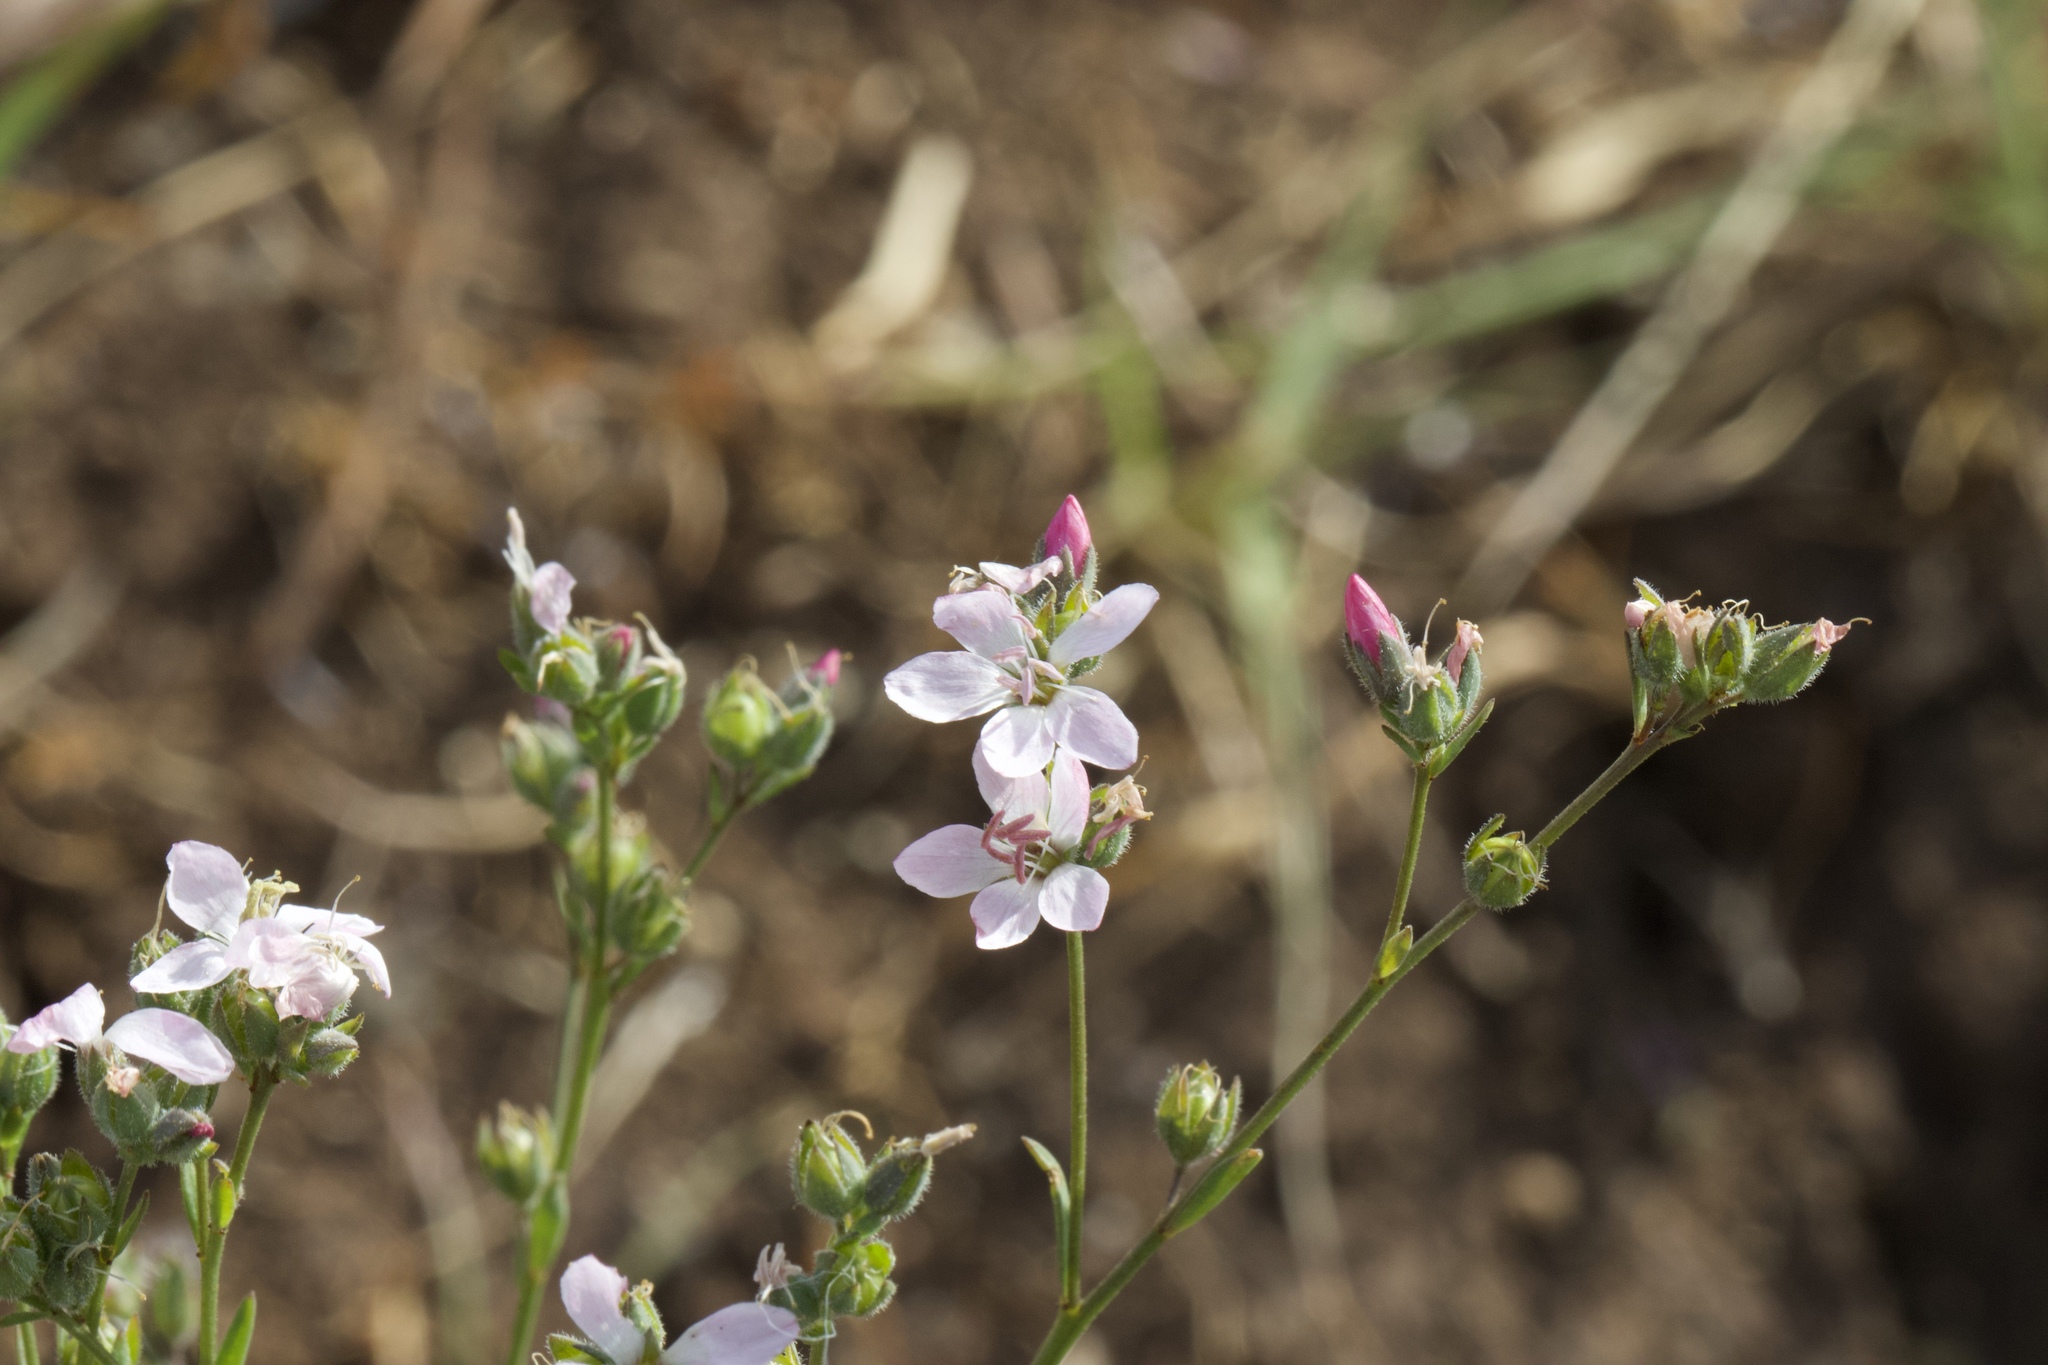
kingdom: Plantae
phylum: Tracheophyta
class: Magnoliopsida
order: Malpighiales
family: Linaceae
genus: Hesperolinon
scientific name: Hesperolinon congestum
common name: Marin dwarf-flax
